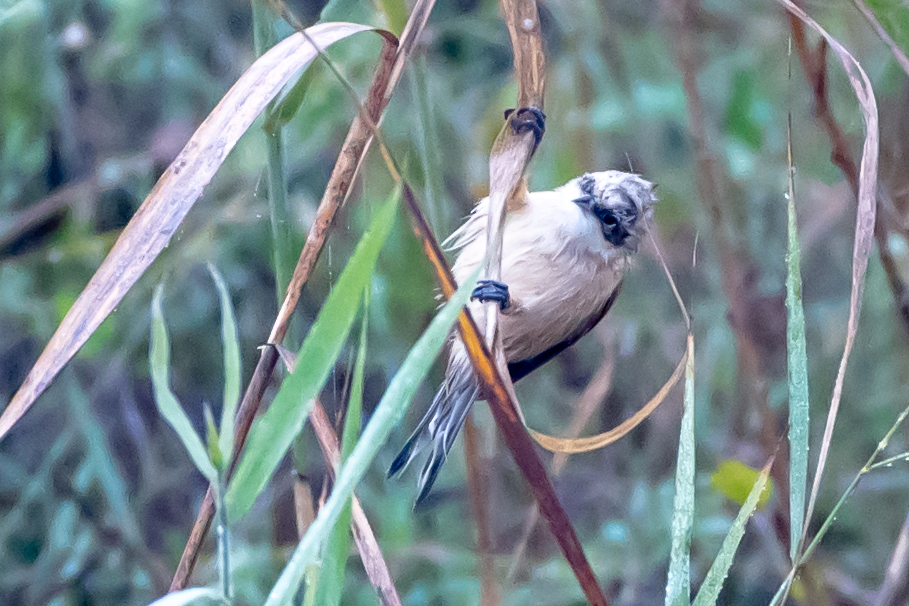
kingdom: Animalia
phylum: Chordata
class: Aves
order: Passeriformes
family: Remizidae
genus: Remiz
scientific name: Remiz pendulinus
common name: Eurasian penduline tit
